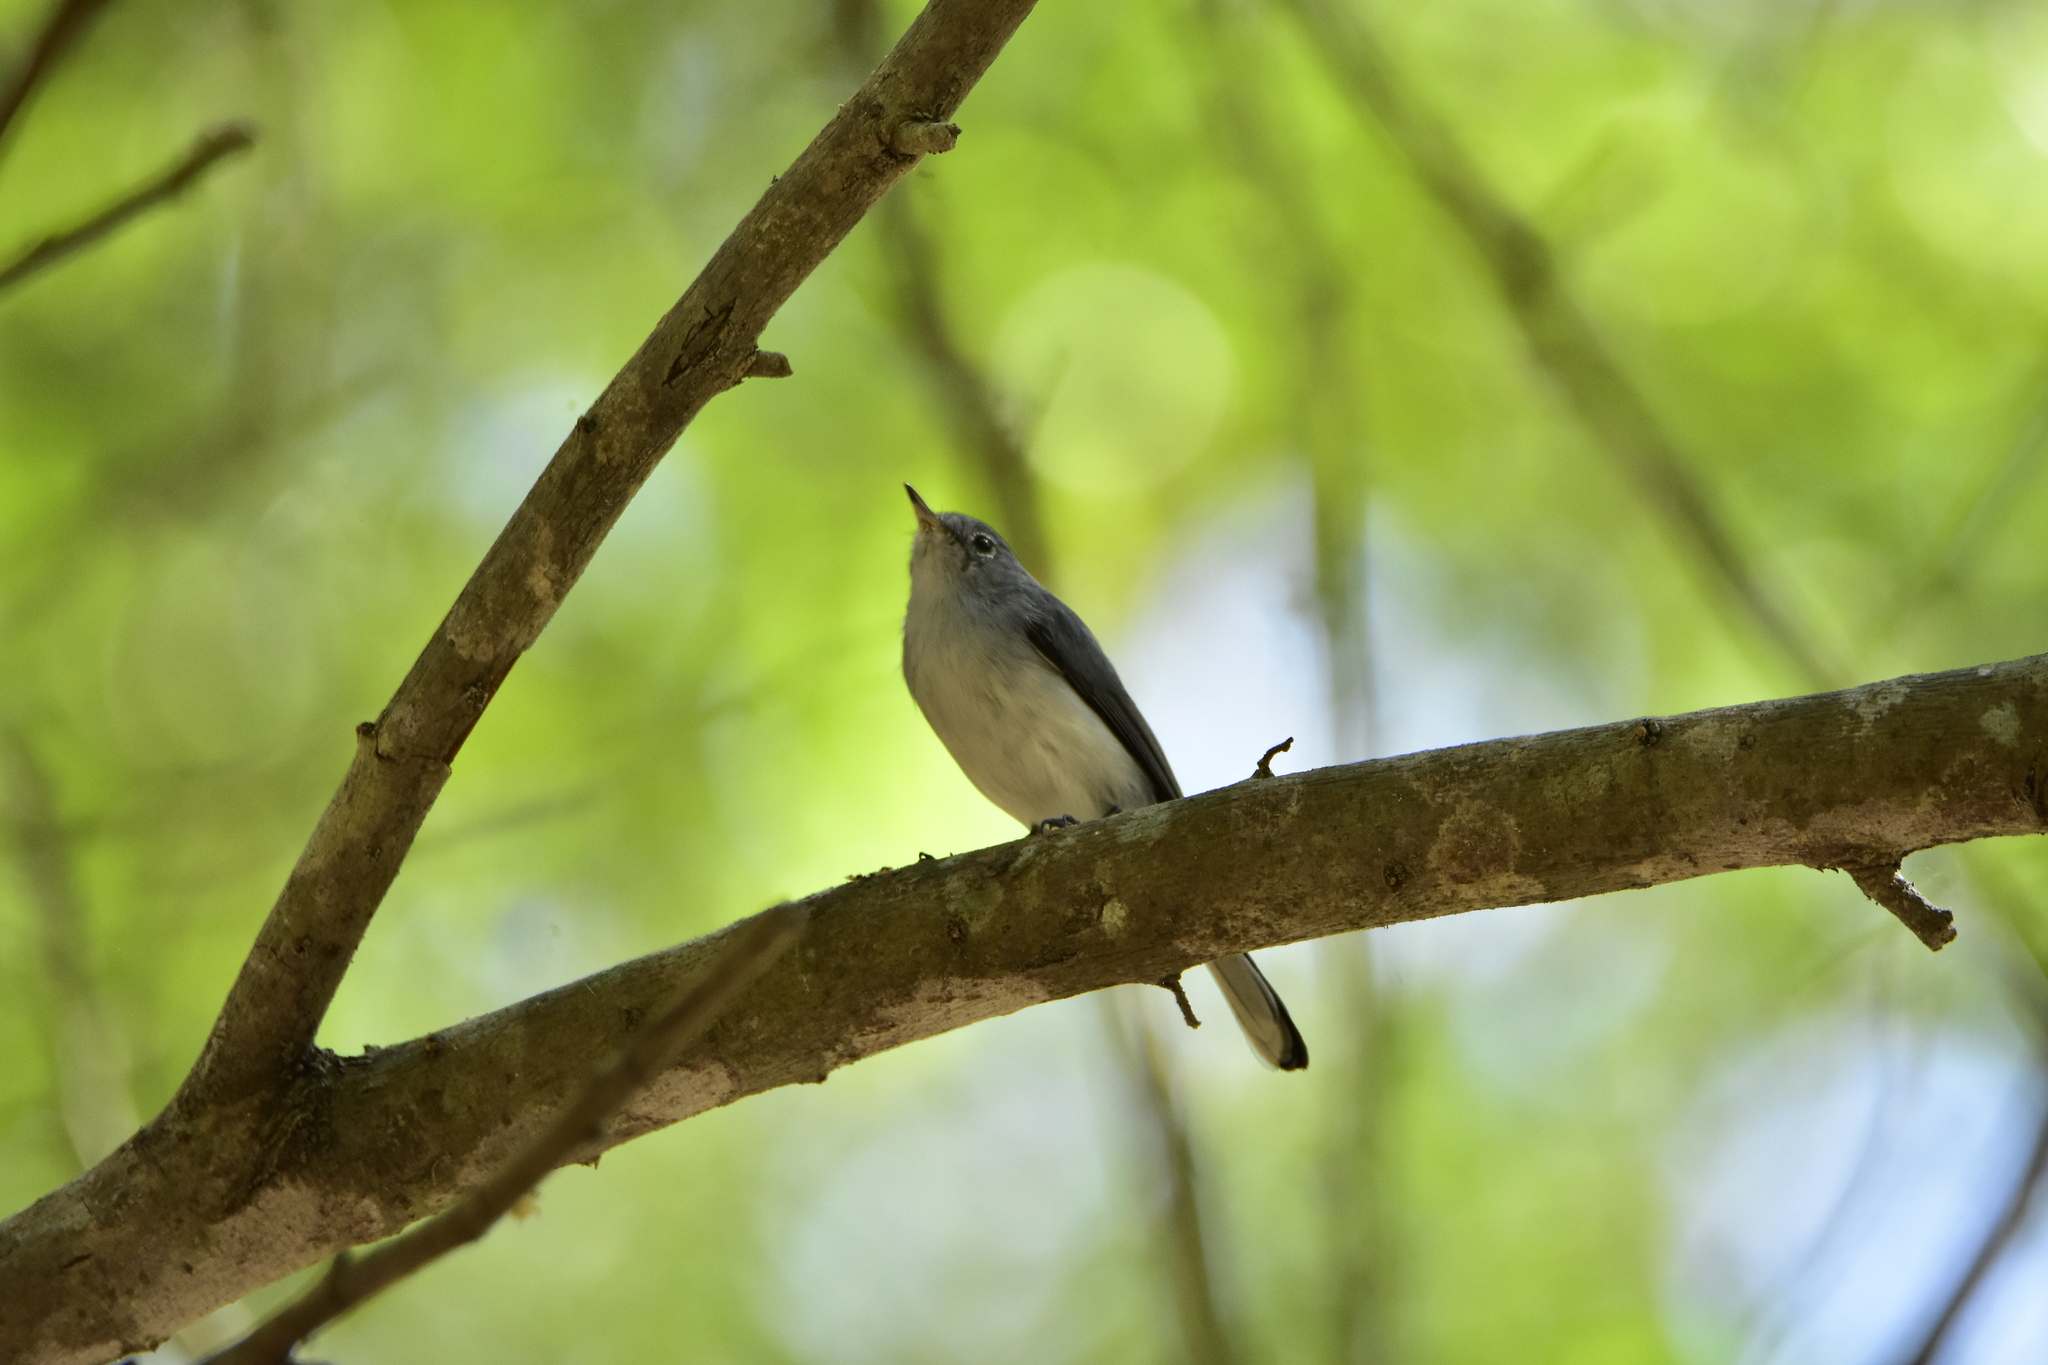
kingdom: Animalia
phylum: Chordata
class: Aves
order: Passeriformes
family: Polioptilidae
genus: Polioptila
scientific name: Polioptila caerulea
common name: Blue-gray gnatcatcher
